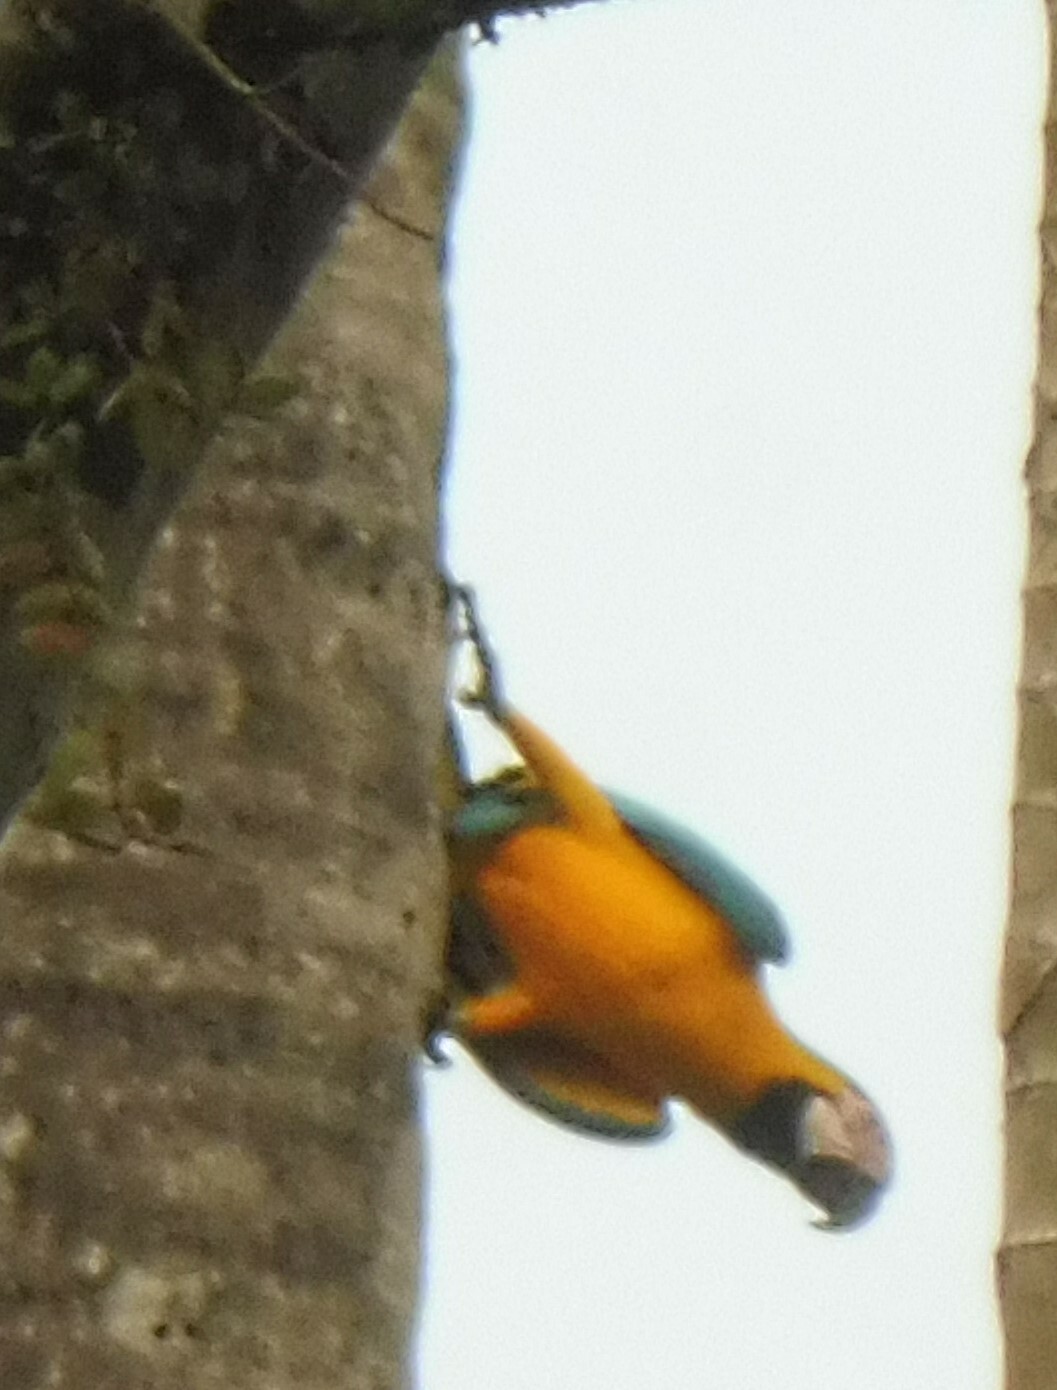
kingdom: Animalia
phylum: Chordata
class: Aves
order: Psittaciformes
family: Psittacidae
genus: Ara
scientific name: Ara ararauna
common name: Blue-and-yellow macaw
